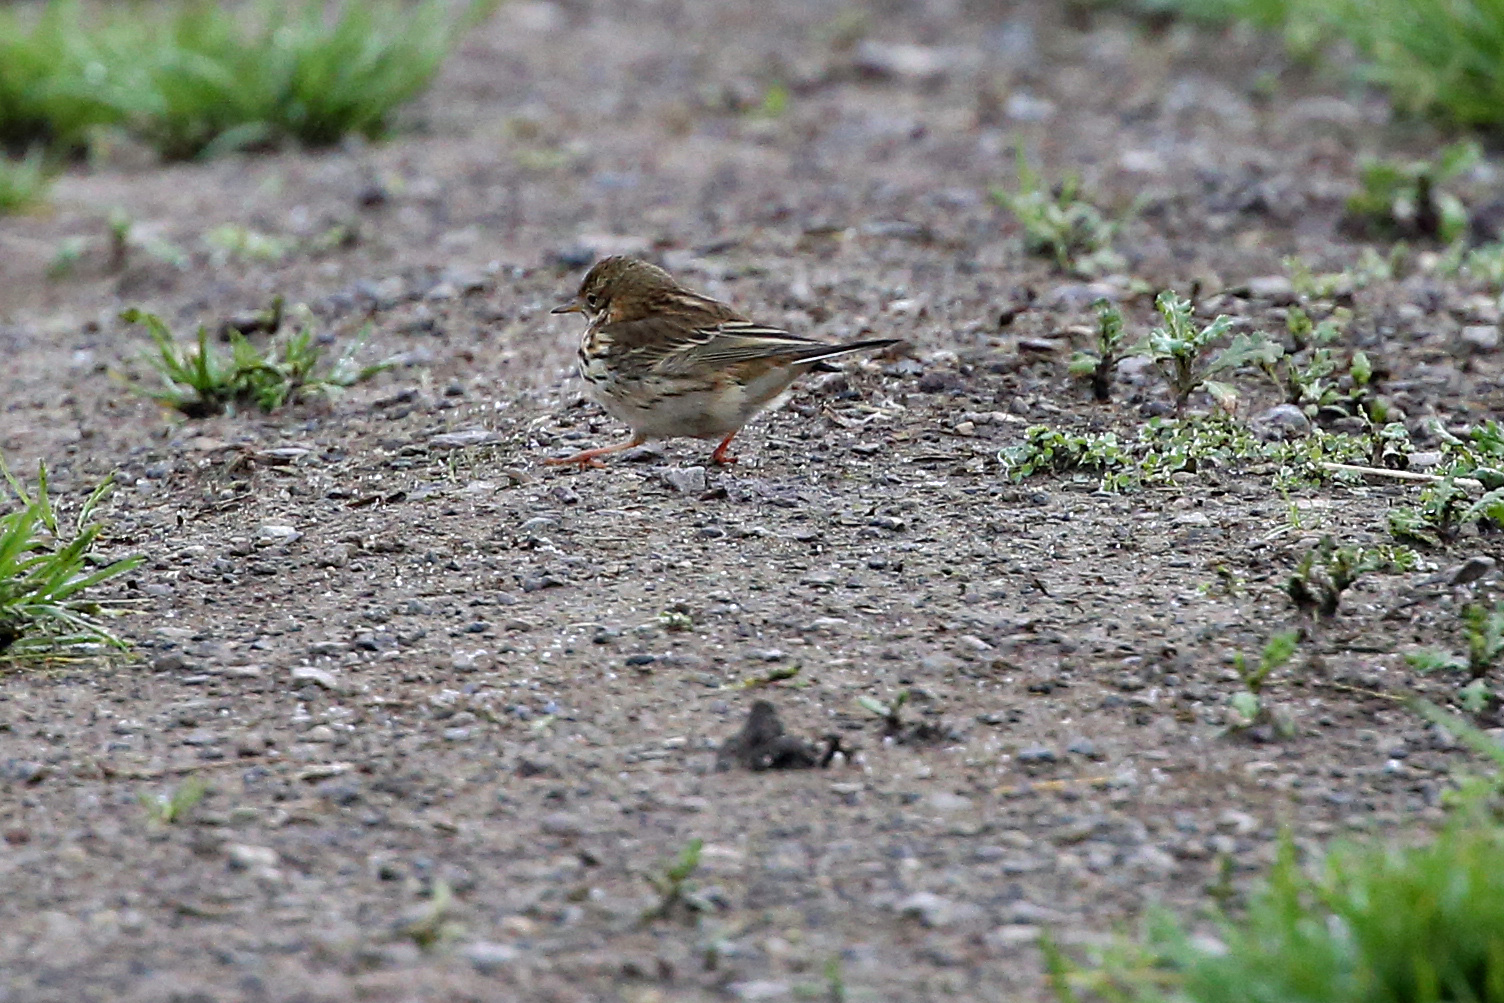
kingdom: Animalia
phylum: Chordata
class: Aves
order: Passeriformes
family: Motacillidae
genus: Anthus
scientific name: Anthus pratensis
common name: Meadow pipit
